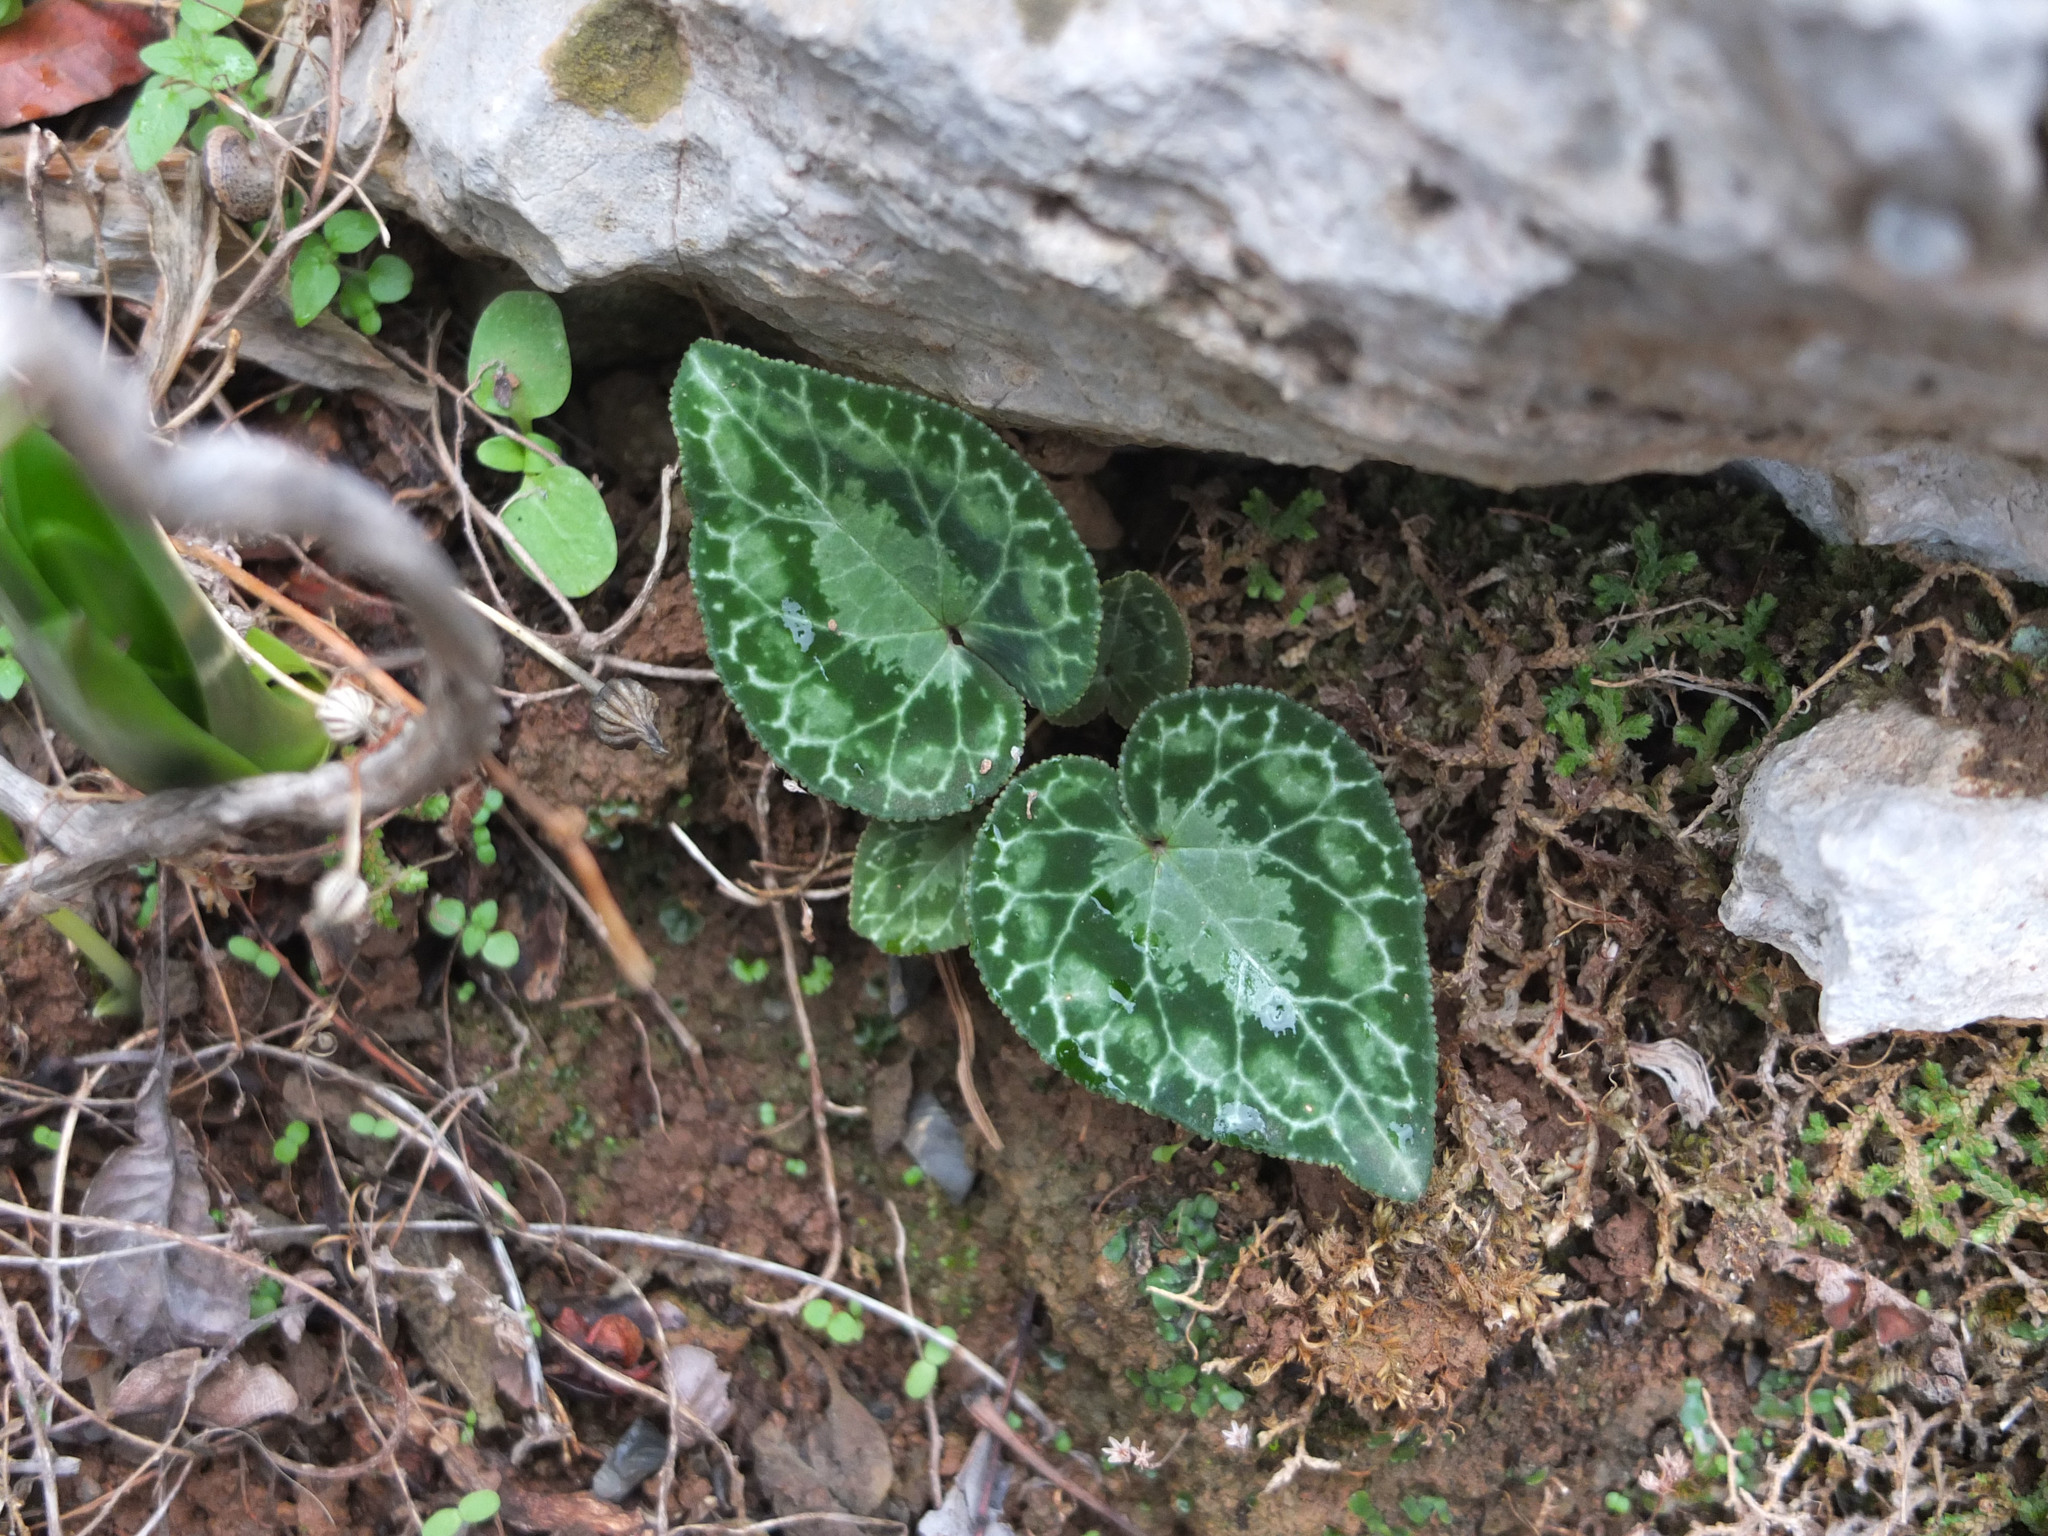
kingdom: Plantae
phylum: Tracheophyta
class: Magnoliopsida
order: Ericales
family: Primulaceae
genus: Cyclamen
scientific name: Cyclamen graecum
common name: Greek cyclamen
